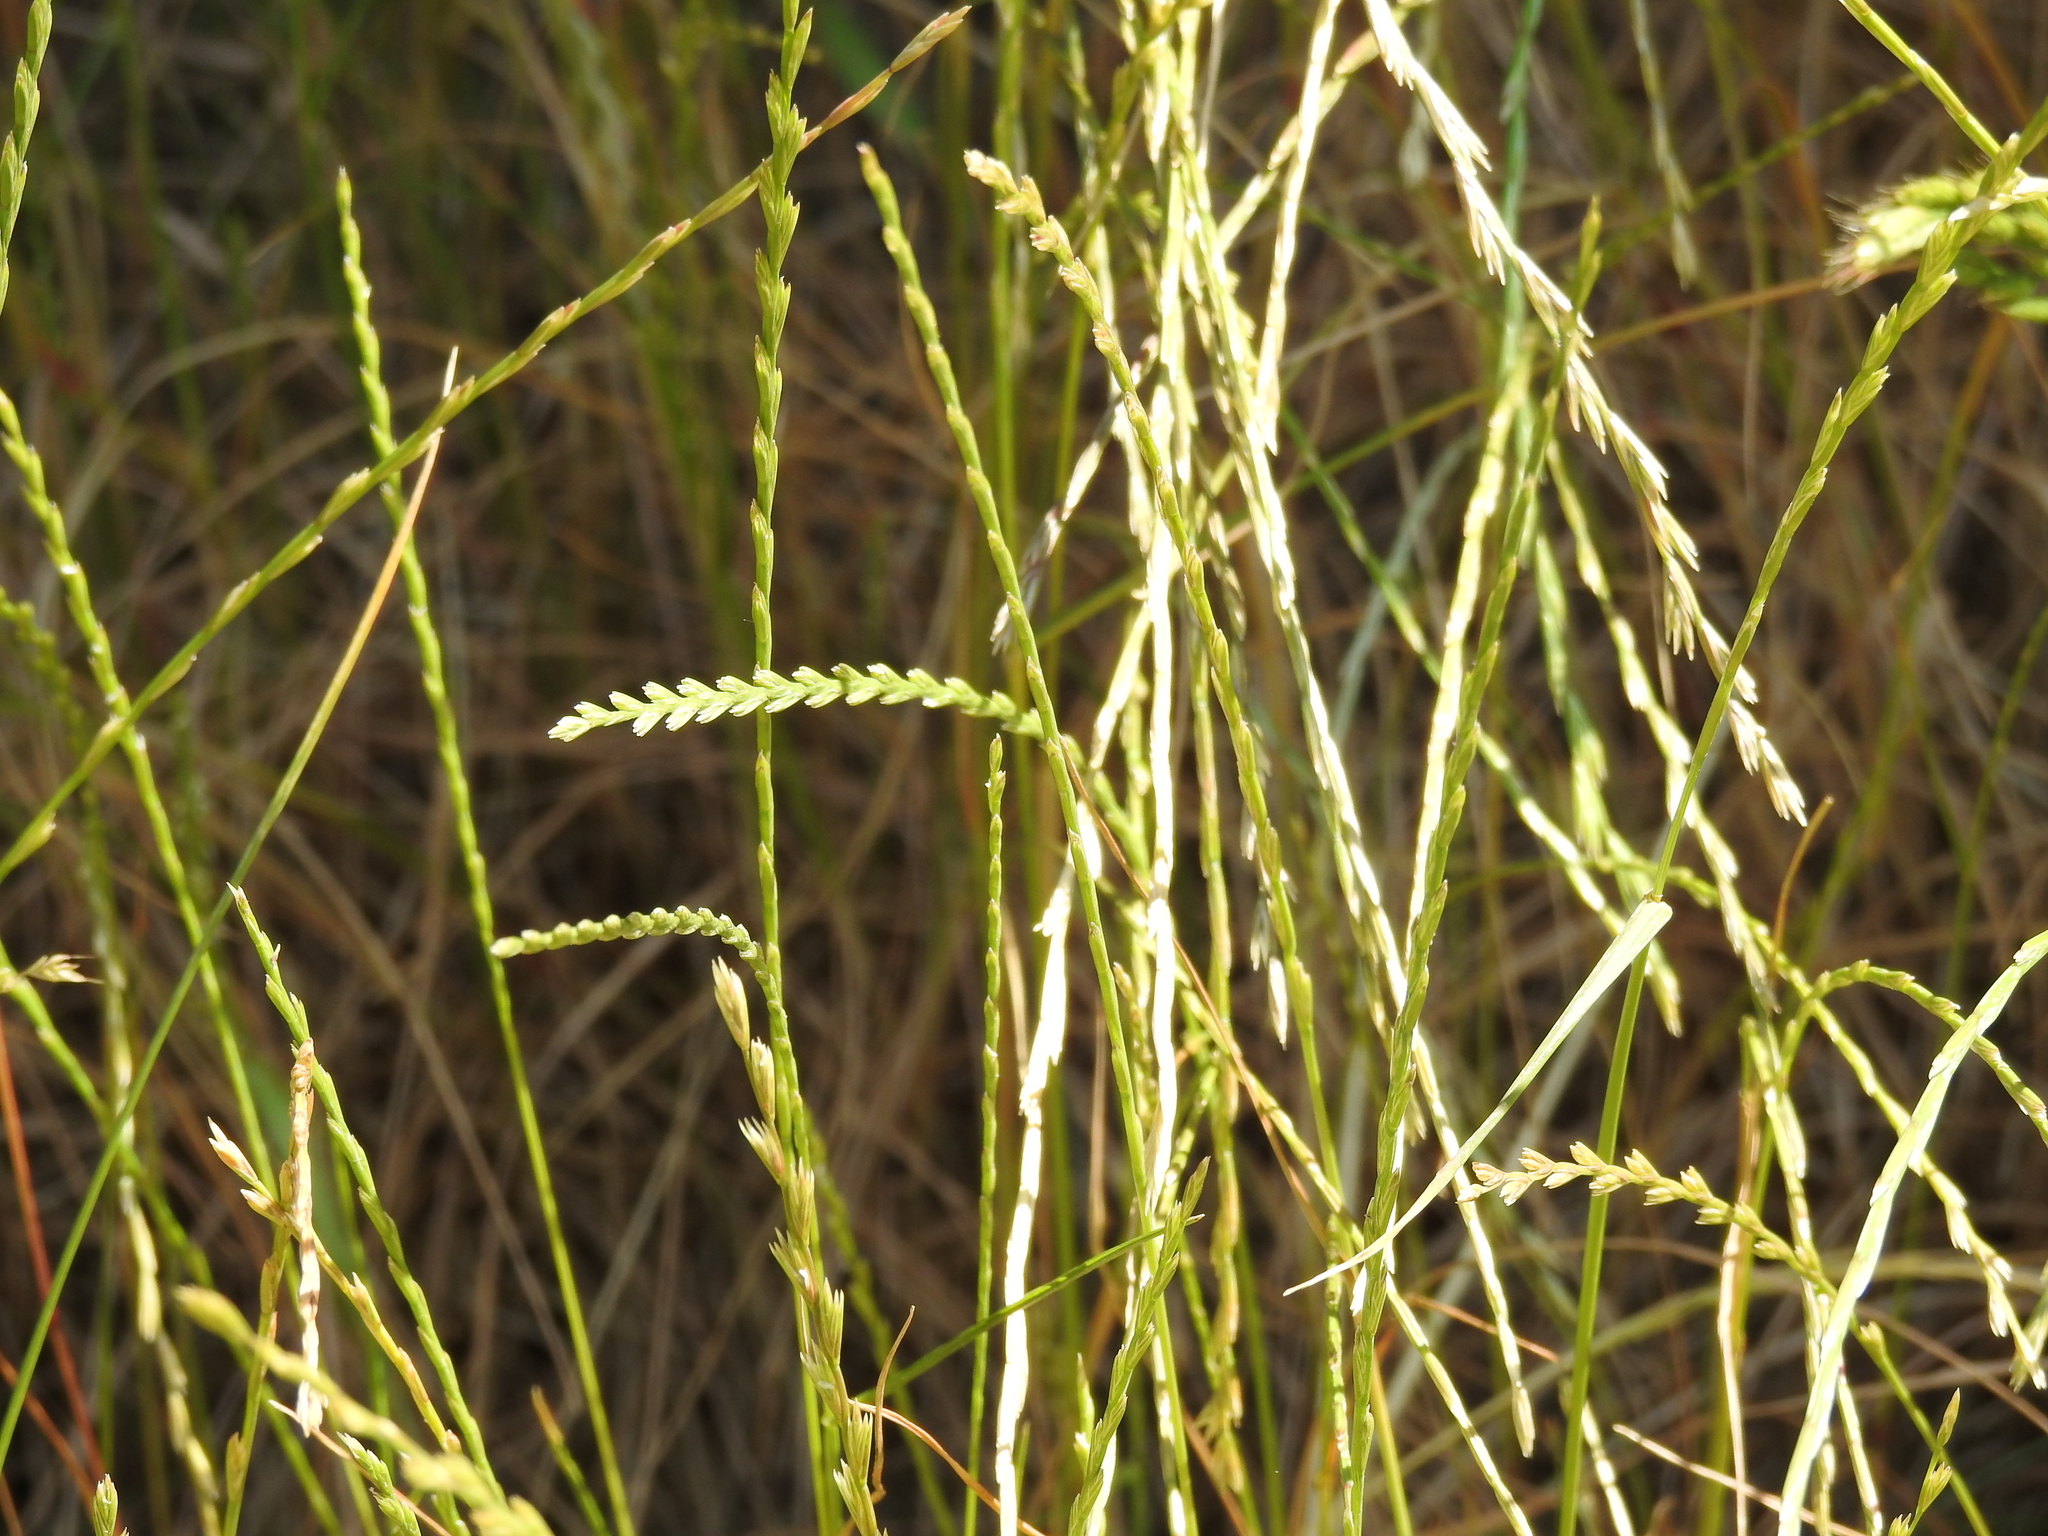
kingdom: Plantae
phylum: Tracheophyta
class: Liliopsida
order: Poales
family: Poaceae
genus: Lolium
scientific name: Lolium perenne
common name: Perennial ryegrass
